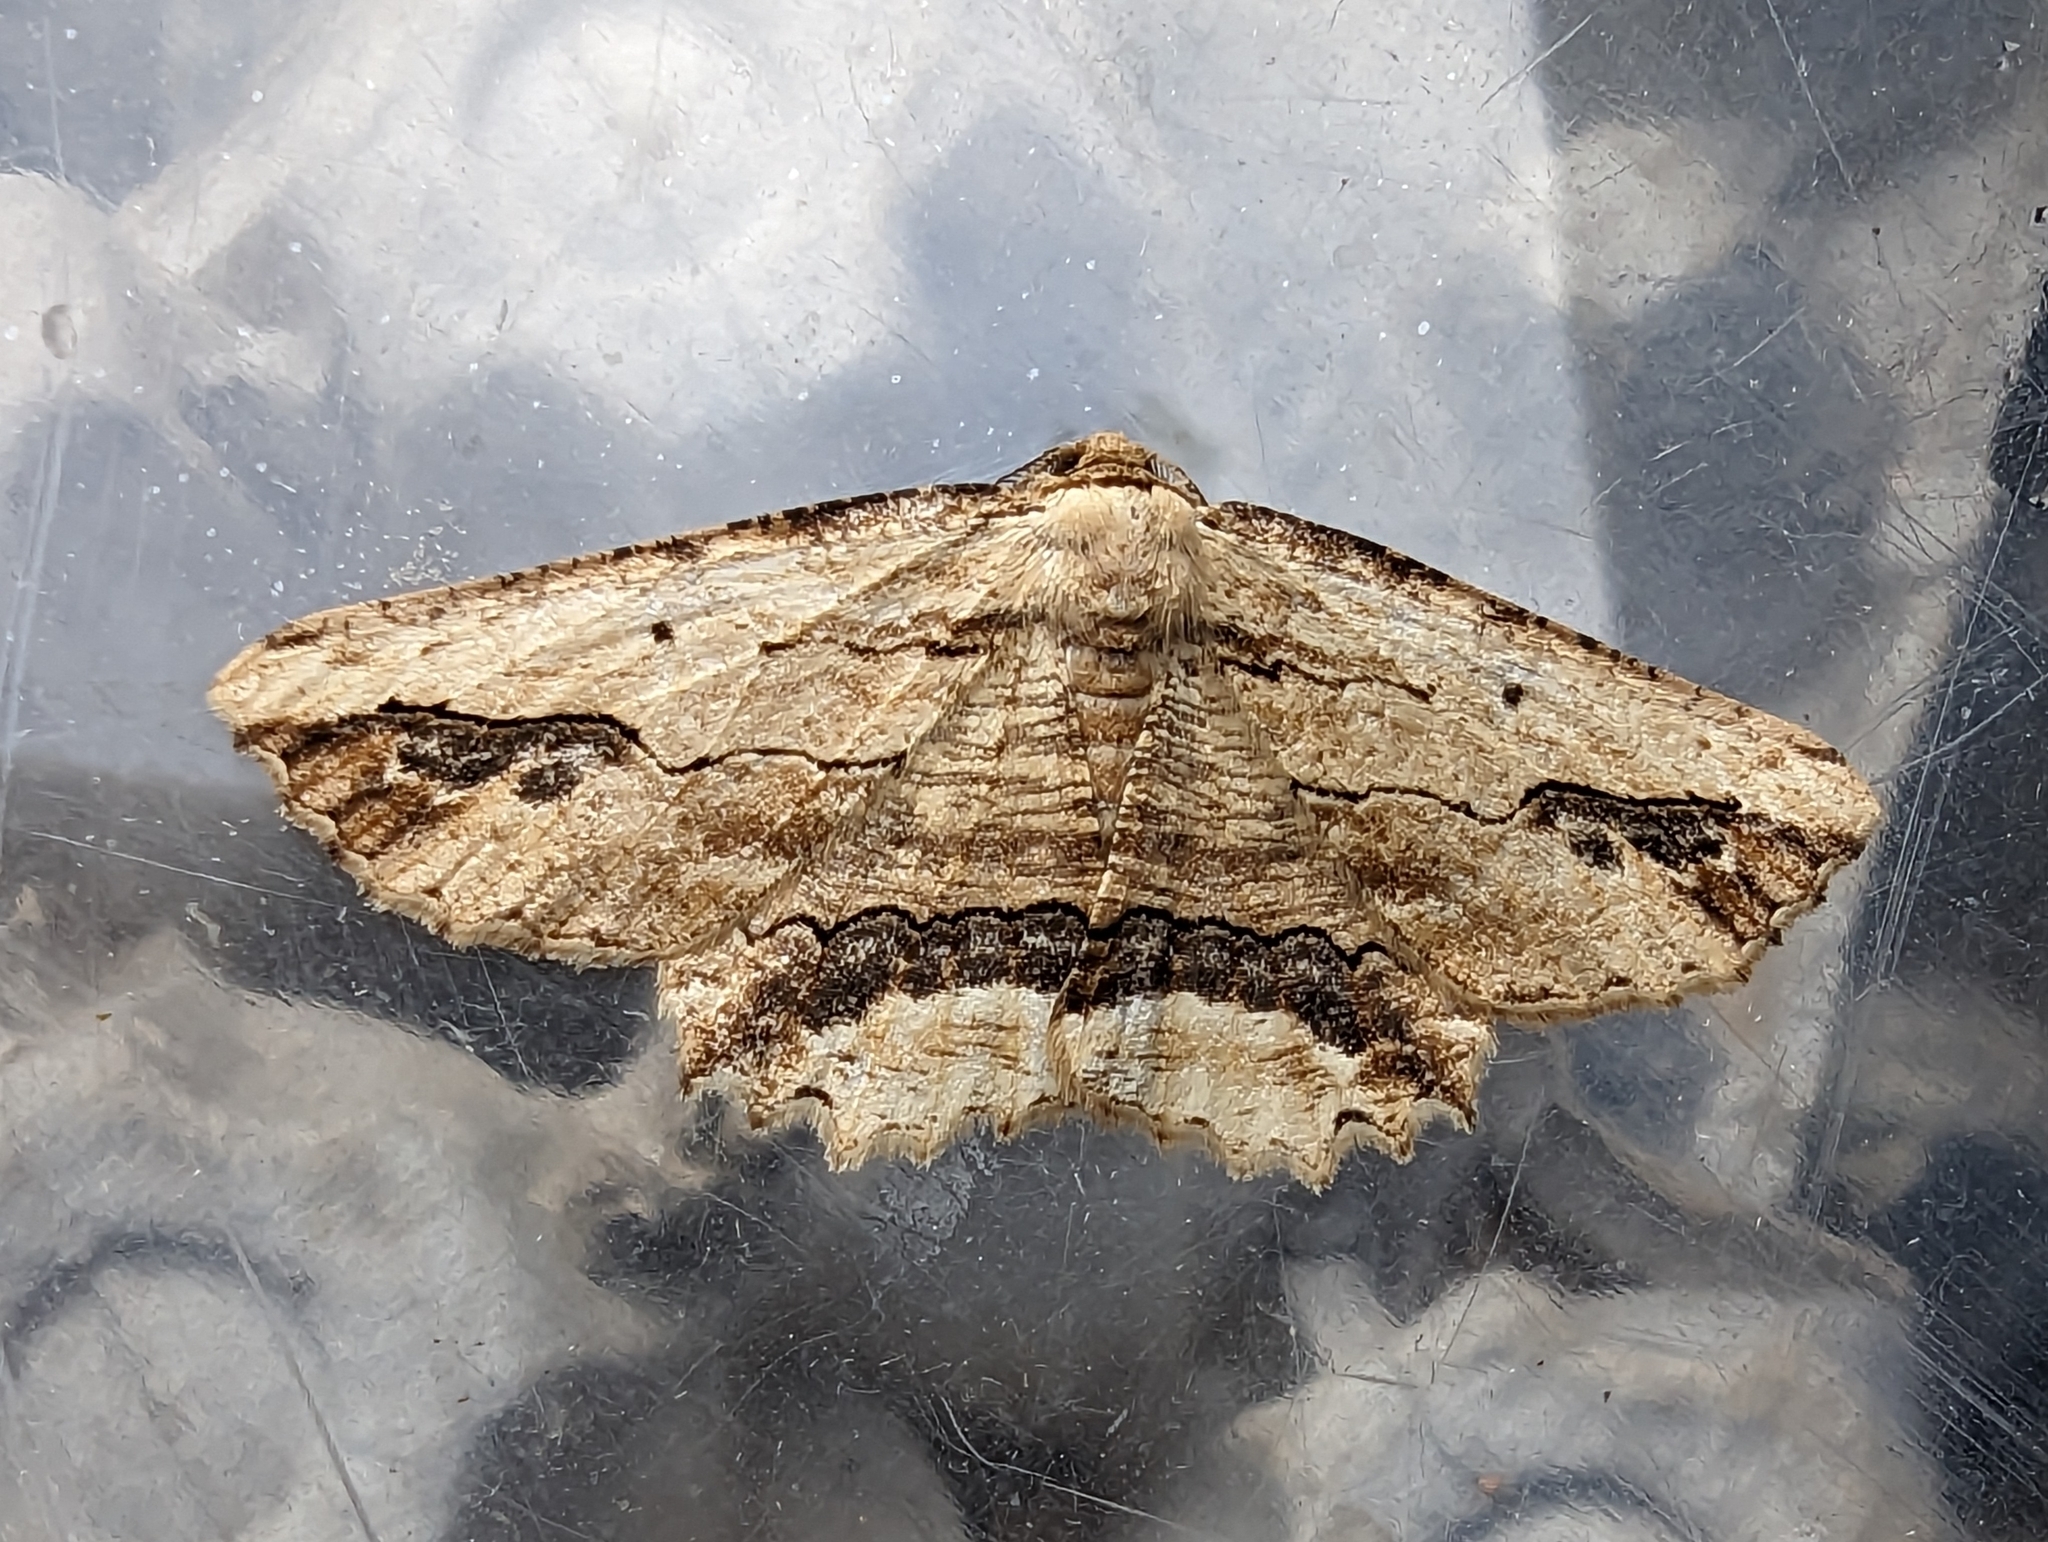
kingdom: Animalia
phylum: Arthropoda
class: Insecta
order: Lepidoptera
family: Geometridae
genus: Menophra
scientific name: Menophra abruptaria
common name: Waved umber
